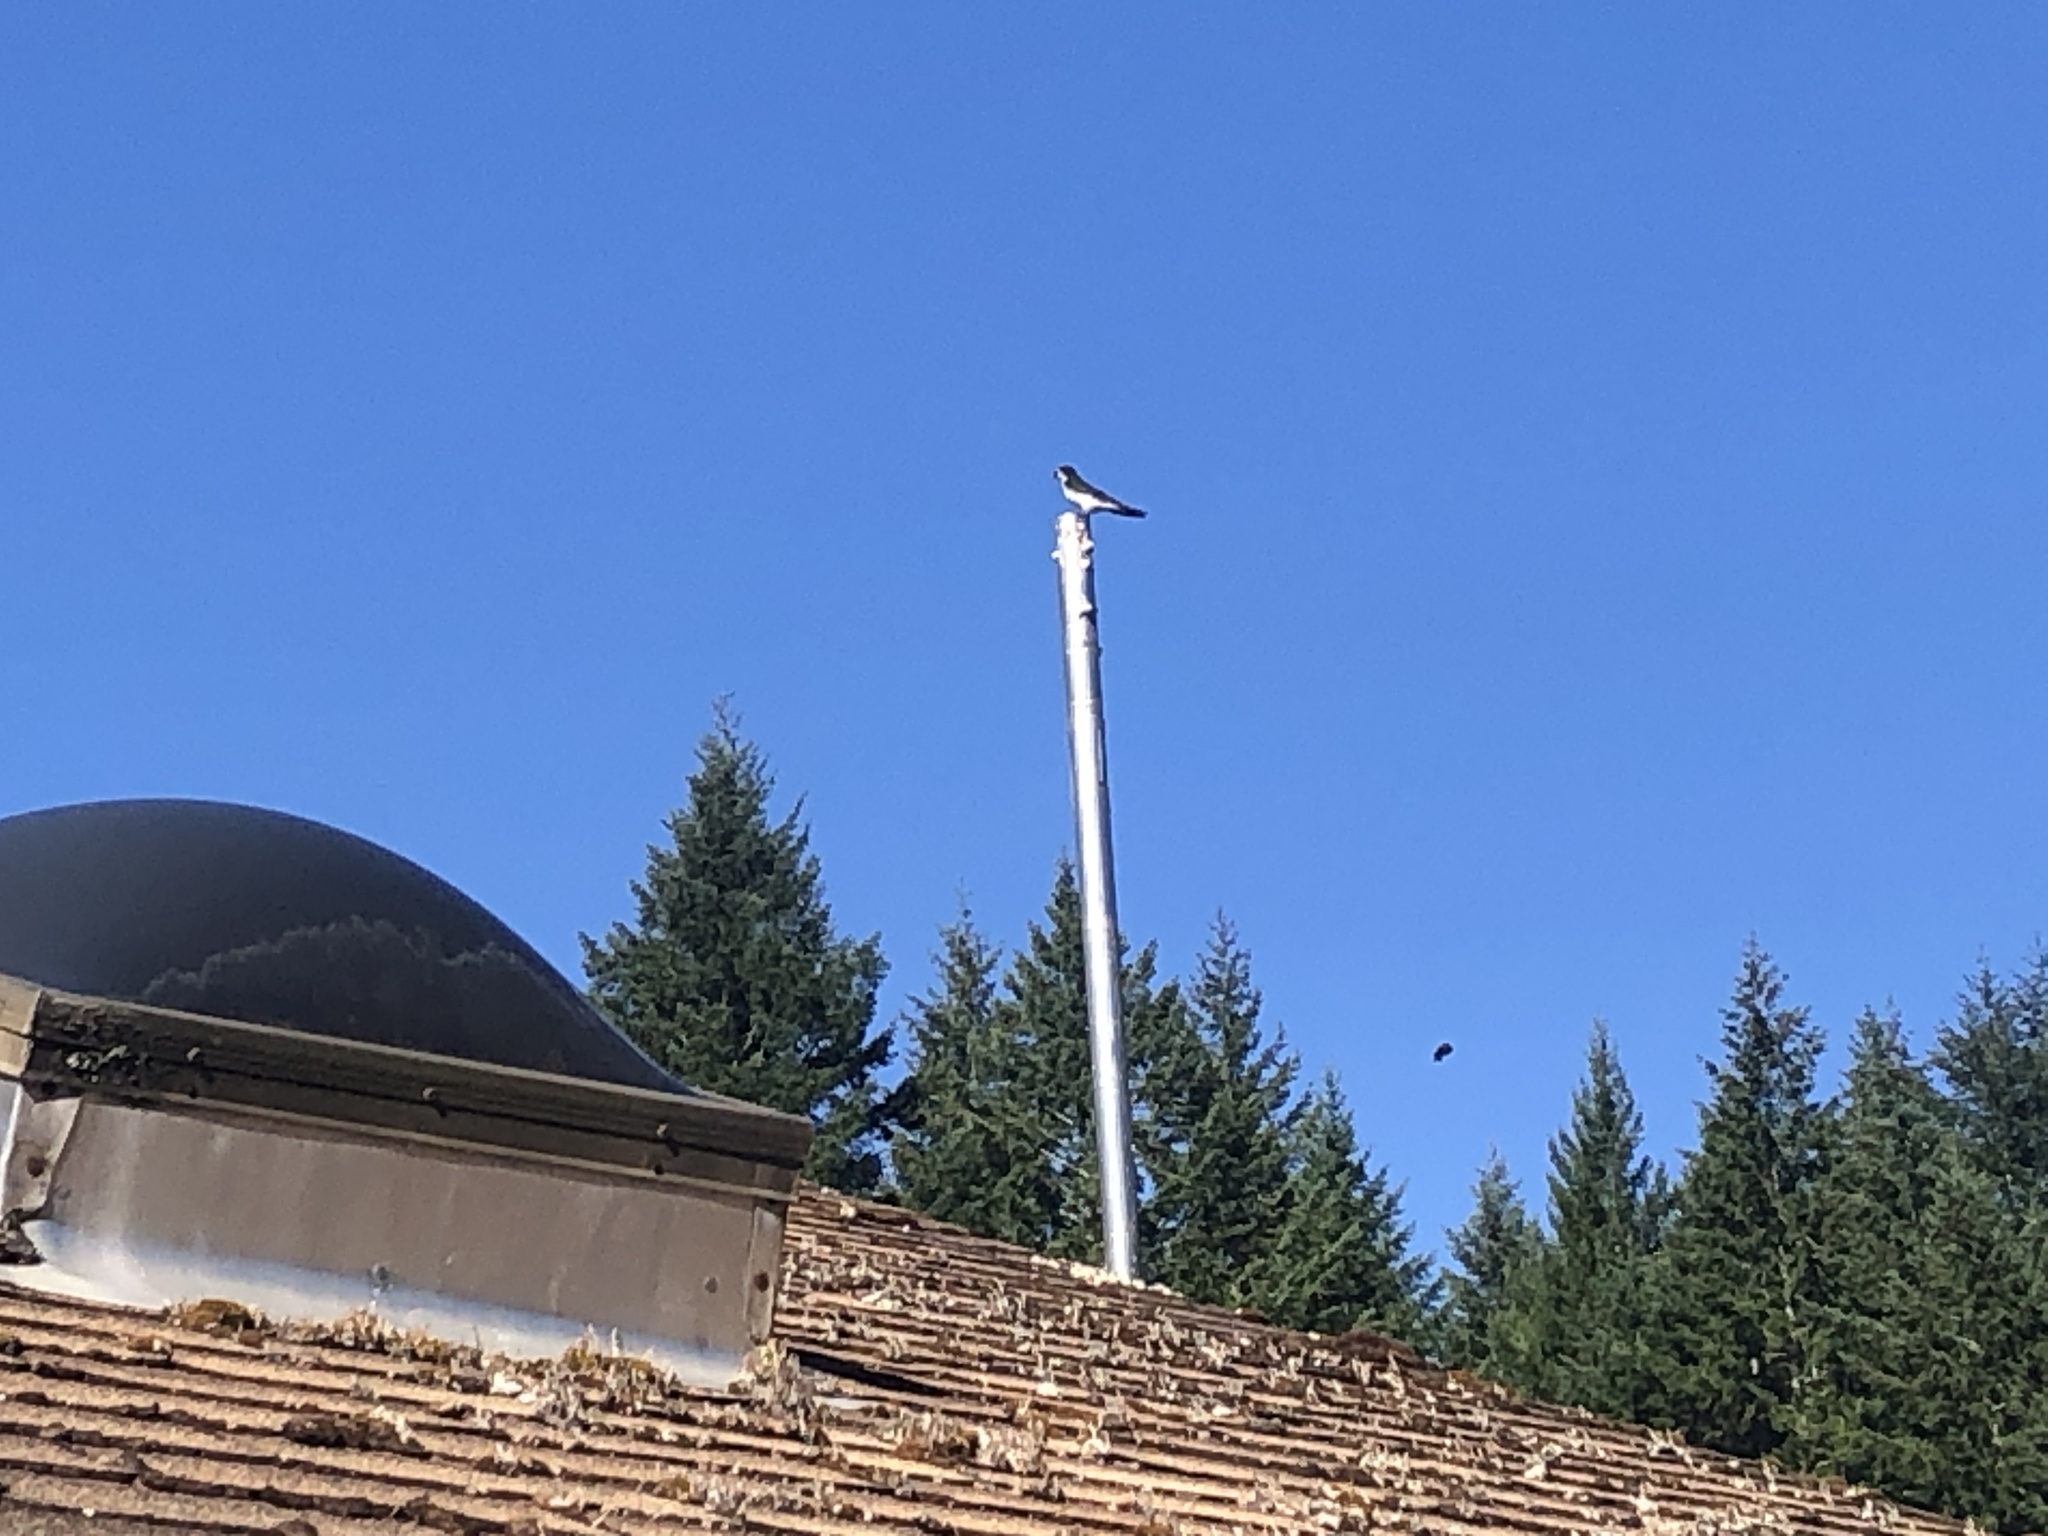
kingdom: Animalia
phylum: Chordata
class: Aves
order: Passeriformes
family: Hirundinidae
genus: Tachycineta
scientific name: Tachycineta bicolor
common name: Tree swallow
